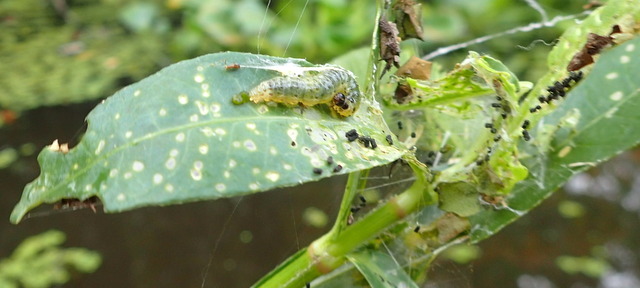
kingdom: Animalia
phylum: Arthropoda
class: Insecta
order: Lepidoptera
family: Crambidae
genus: Herpetogramma
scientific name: Herpetogramma bipunctalis
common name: Southern beet webworm
